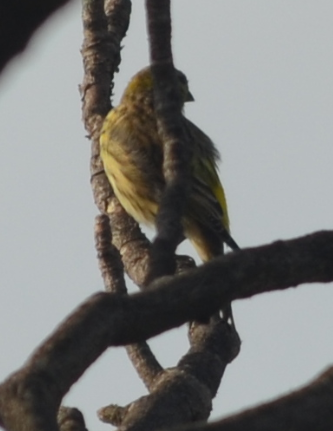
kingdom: Animalia
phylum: Chordata
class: Aves
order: Passeriformes
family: Fringillidae
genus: Serinus
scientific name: Serinus serinus
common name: European serin
